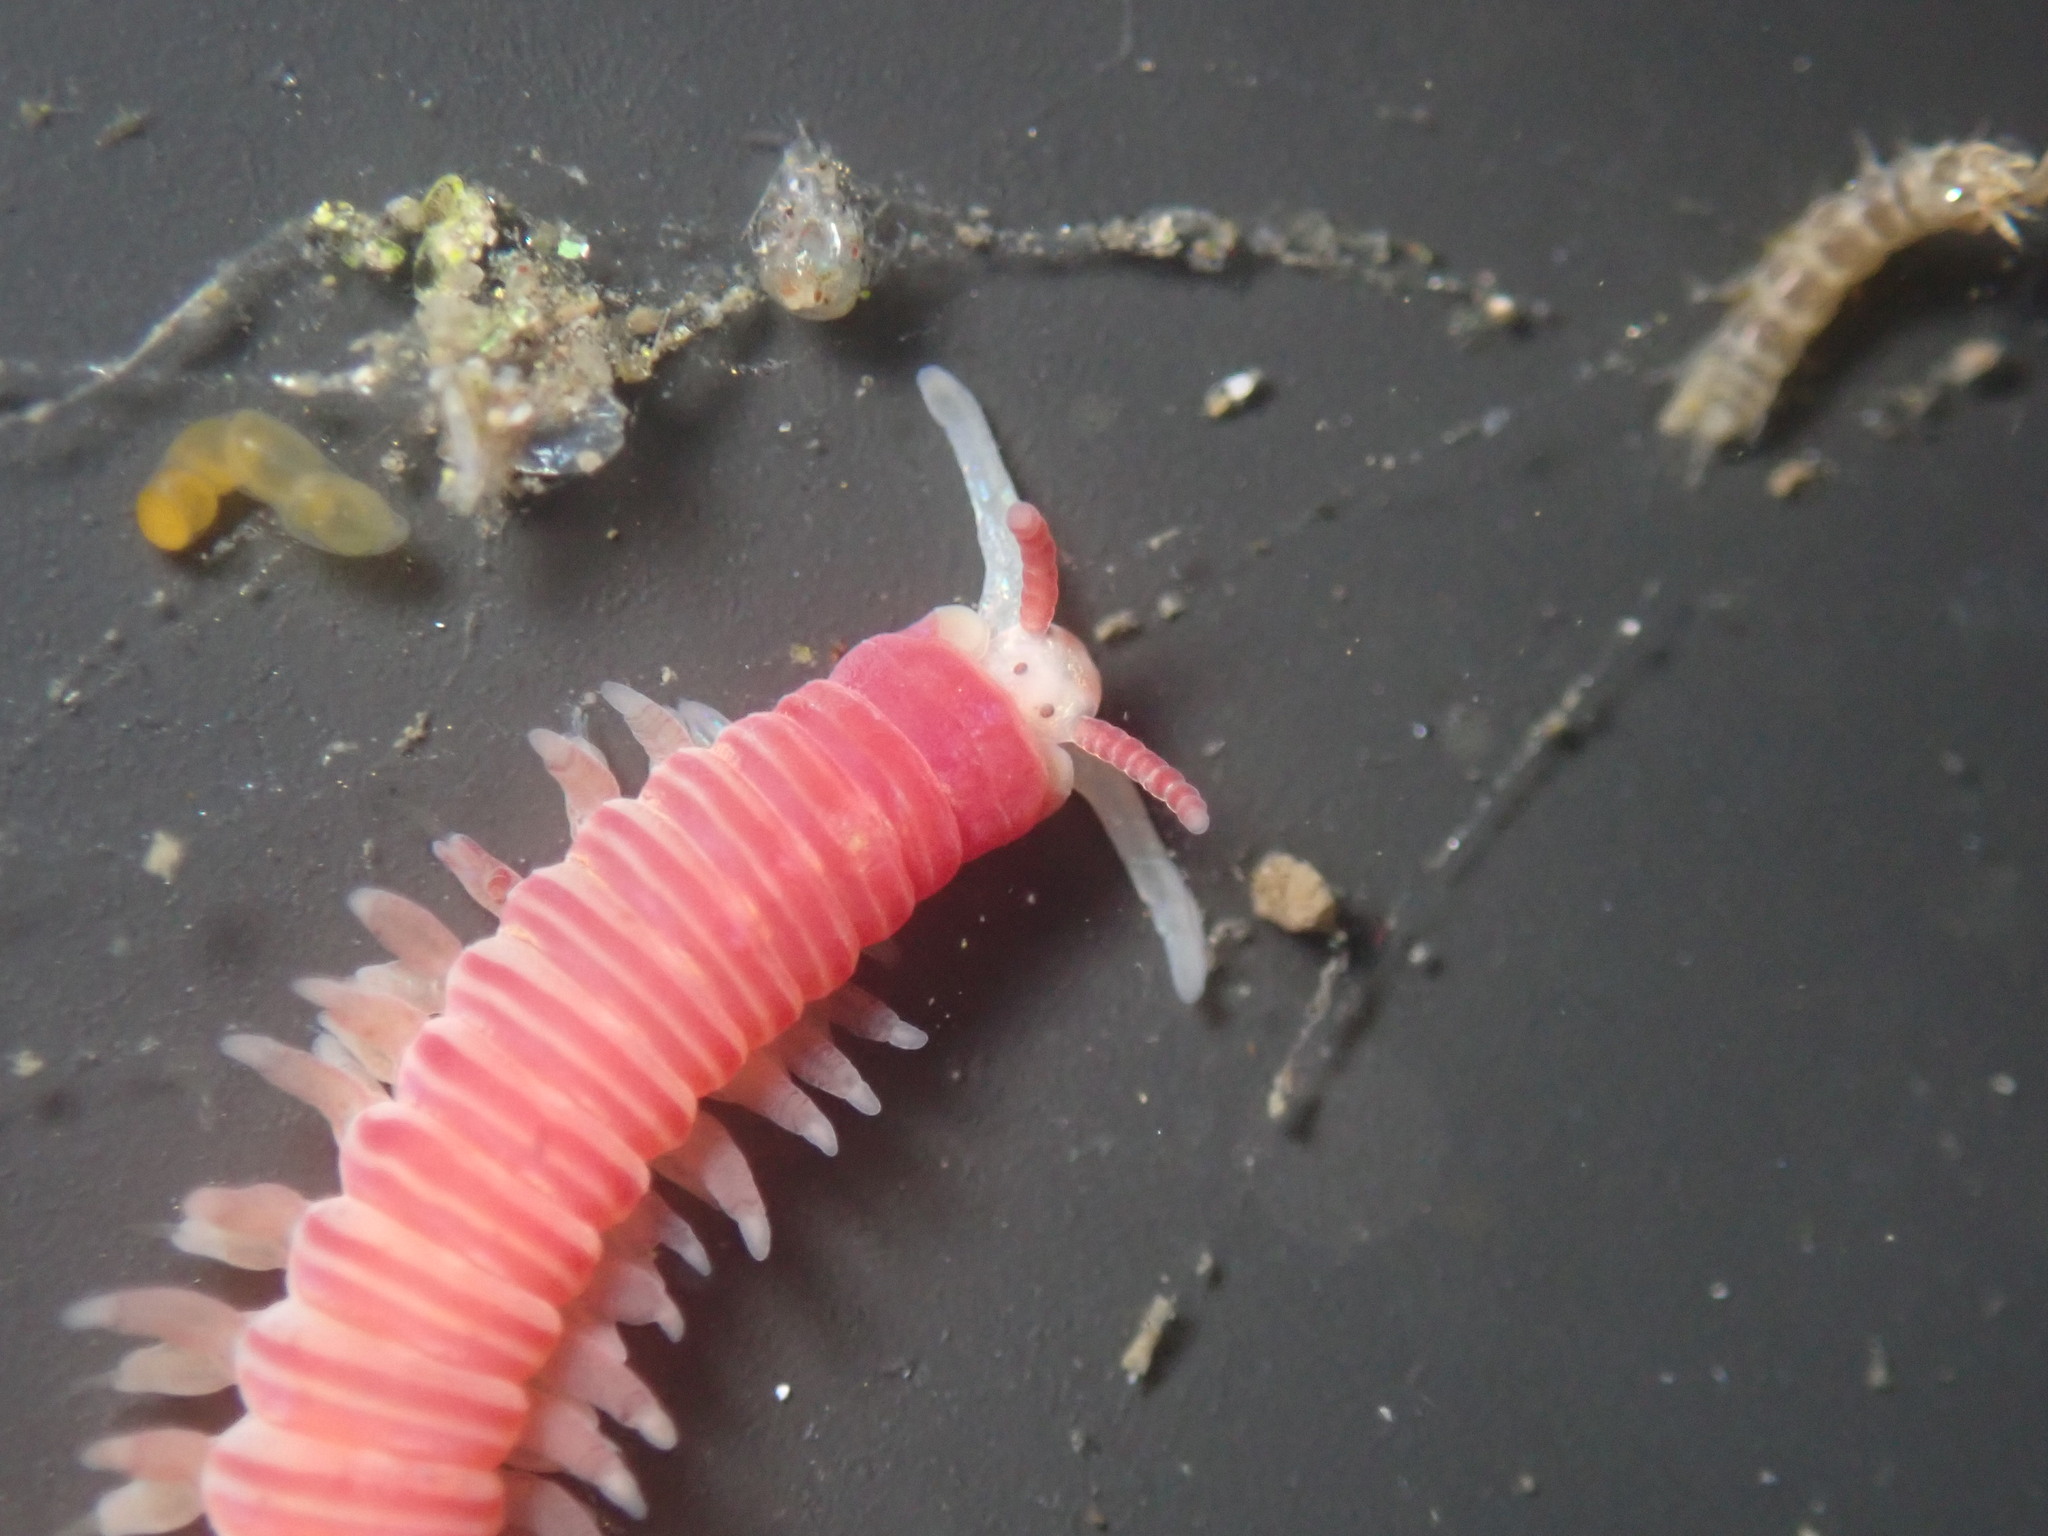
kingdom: Animalia
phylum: Annelida
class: Polychaeta
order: Eunicida
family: Dorvilleidae
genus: Dorvillea
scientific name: Dorvillea moniloceras
